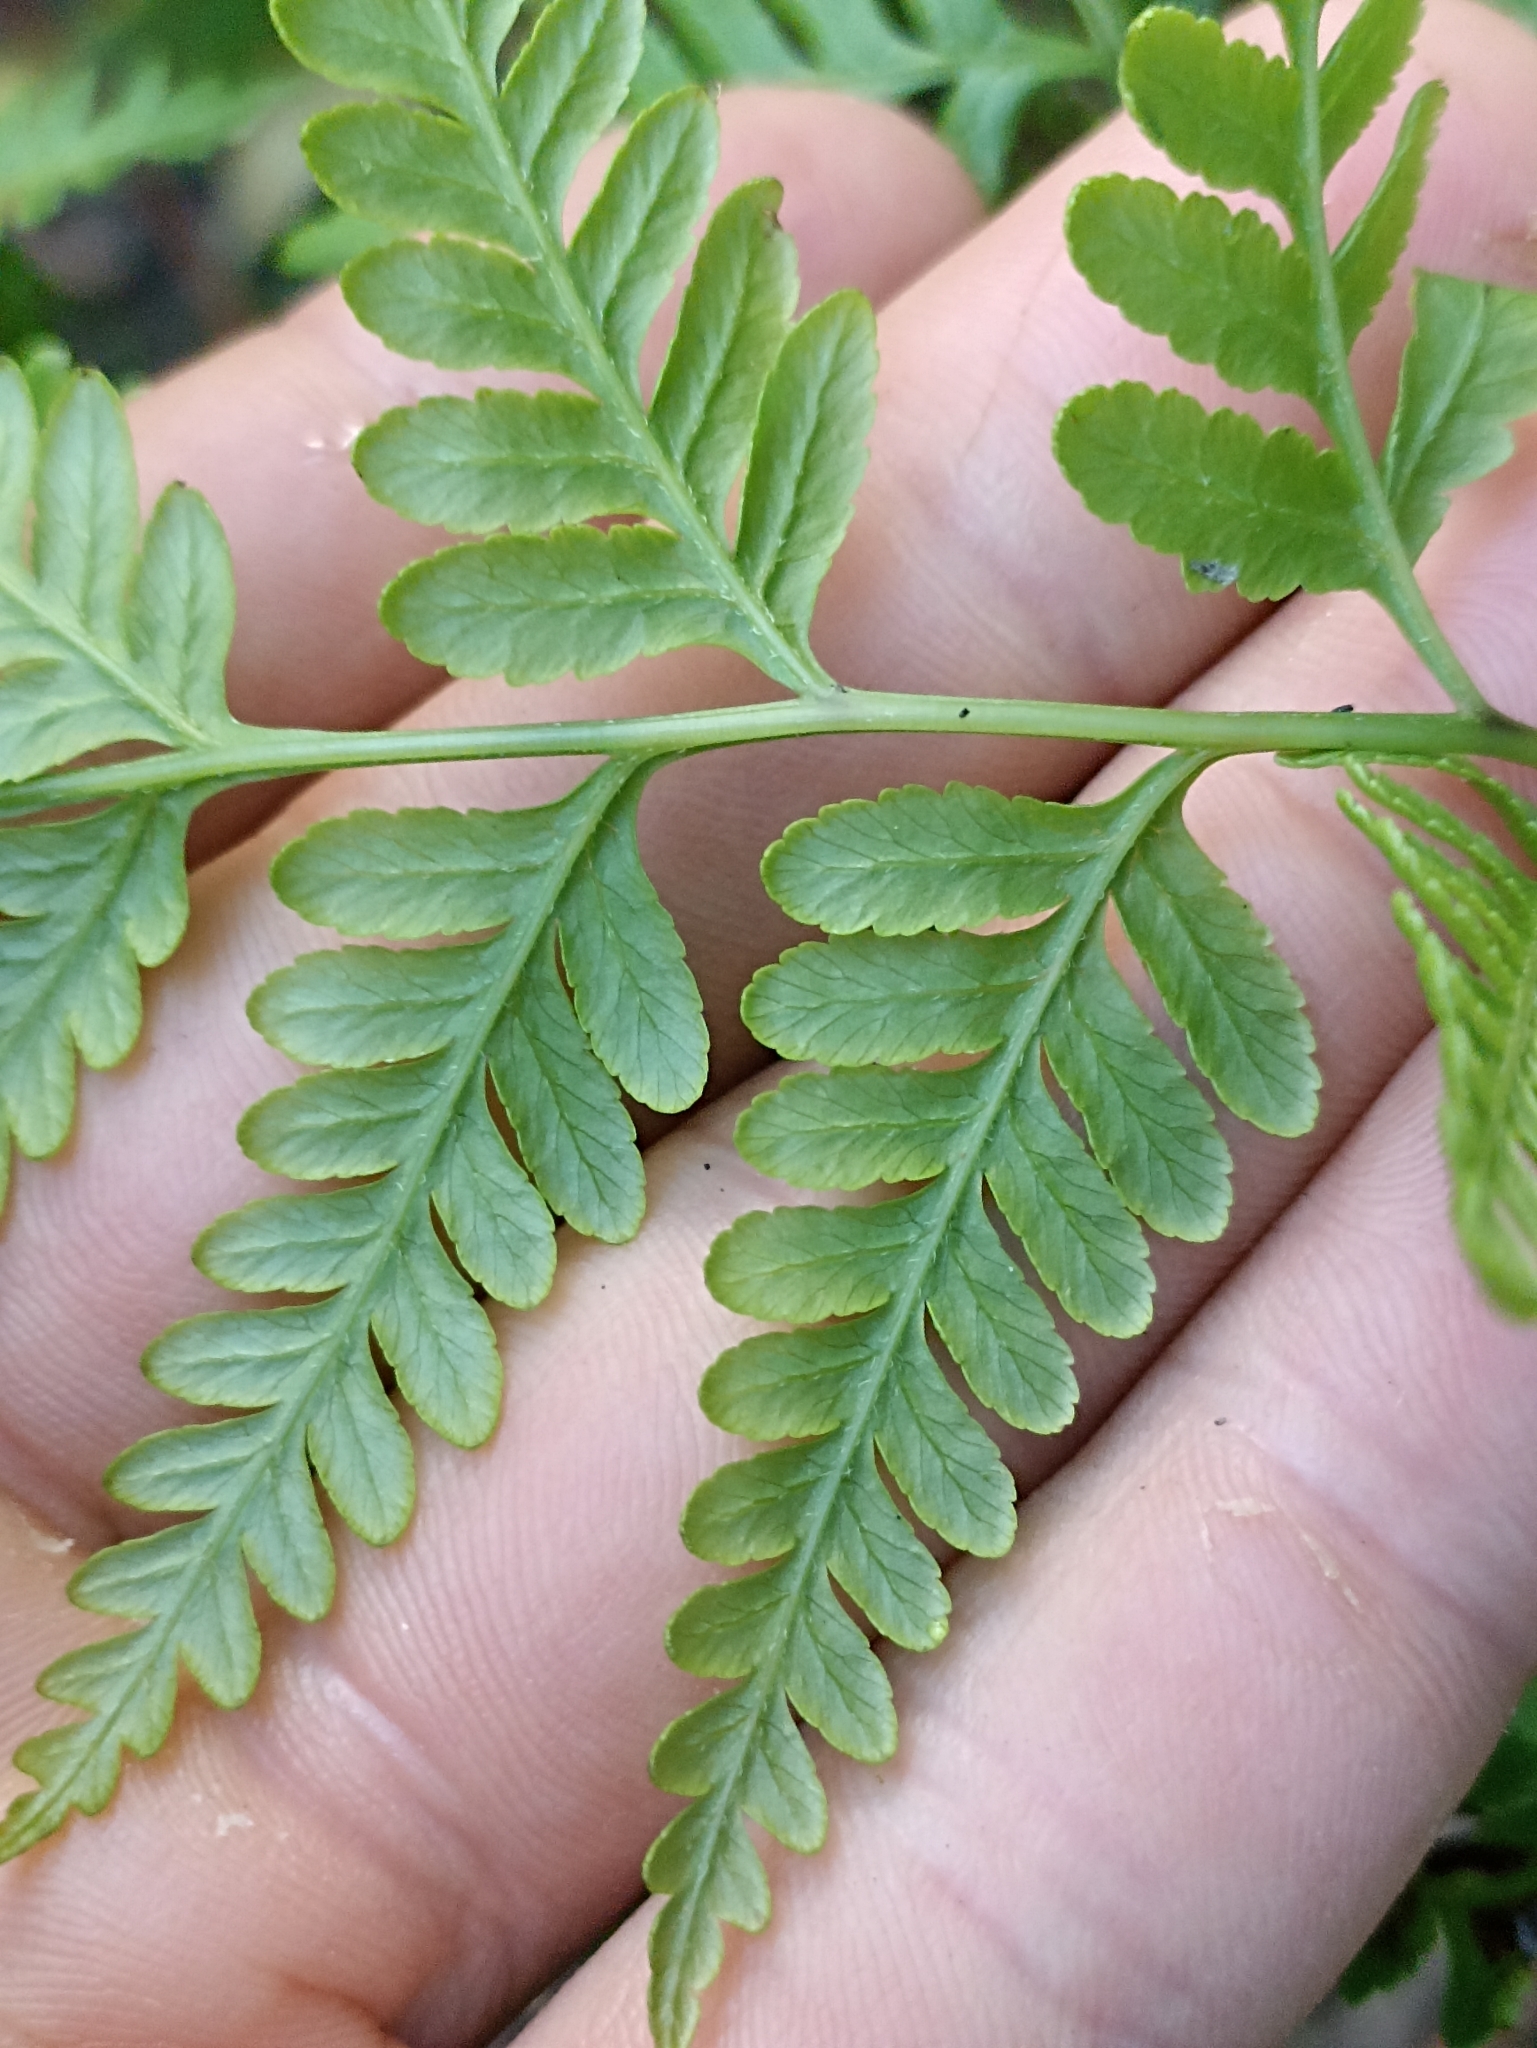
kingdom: Plantae
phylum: Tracheophyta
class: Polypodiopsida
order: Polypodiales
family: Pteridaceae
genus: Pteris
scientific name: Pteris tremula
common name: Australian brake
